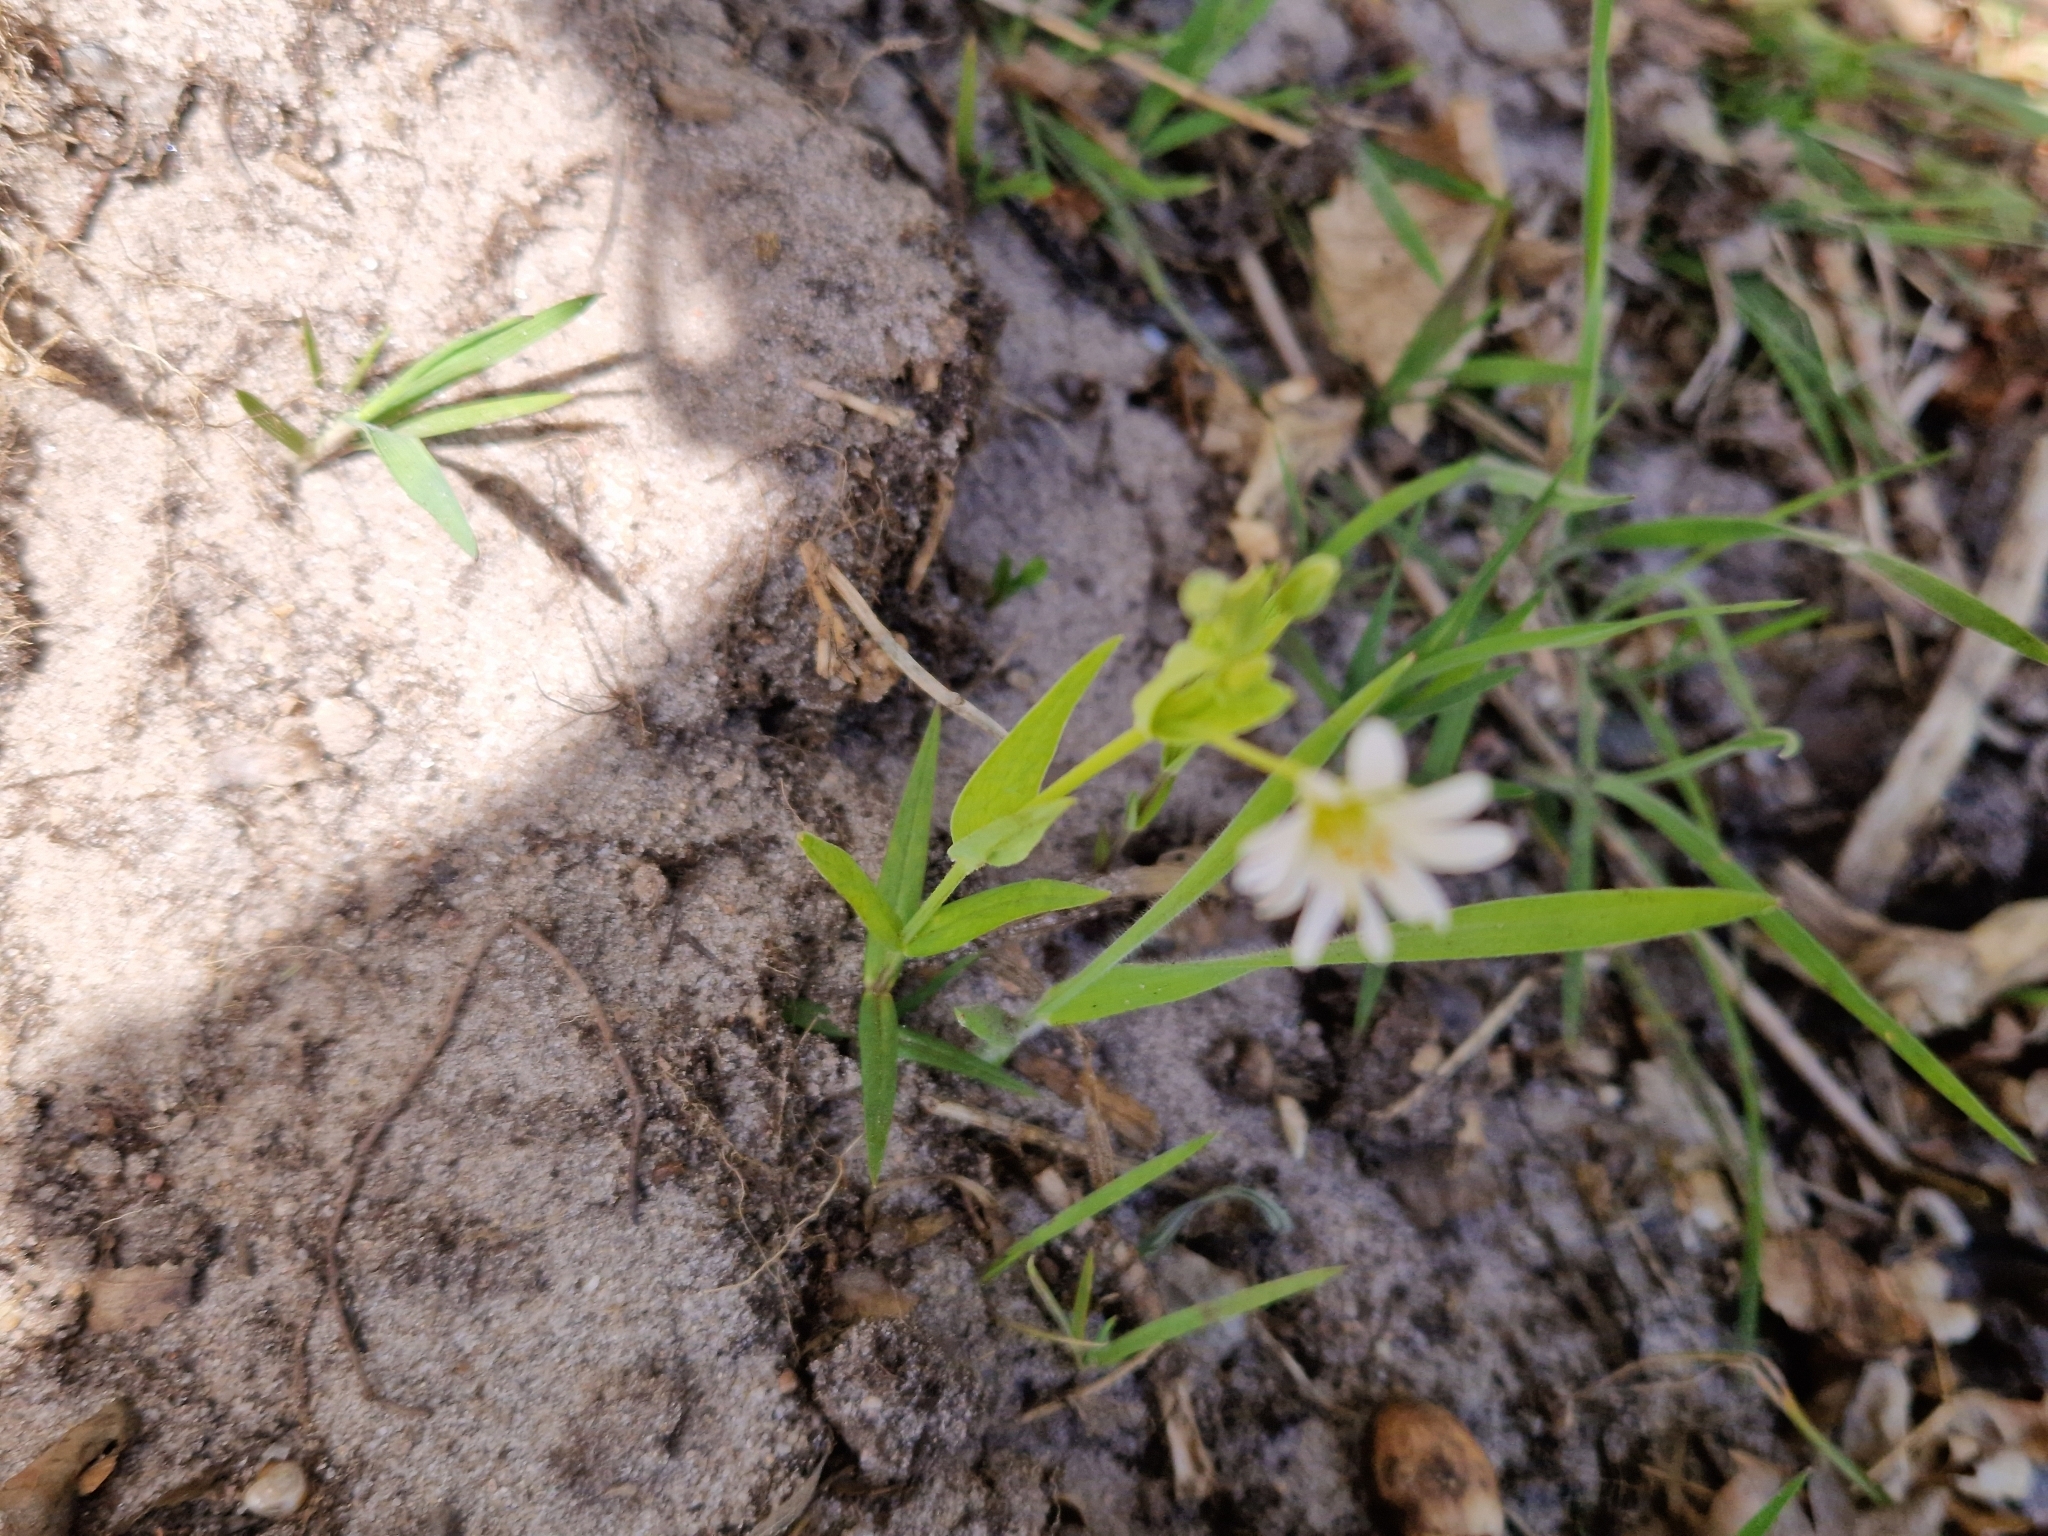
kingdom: Plantae
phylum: Tracheophyta
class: Magnoliopsida
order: Caryophyllales
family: Caryophyllaceae
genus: Rabelera
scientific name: Rabelera holostea
